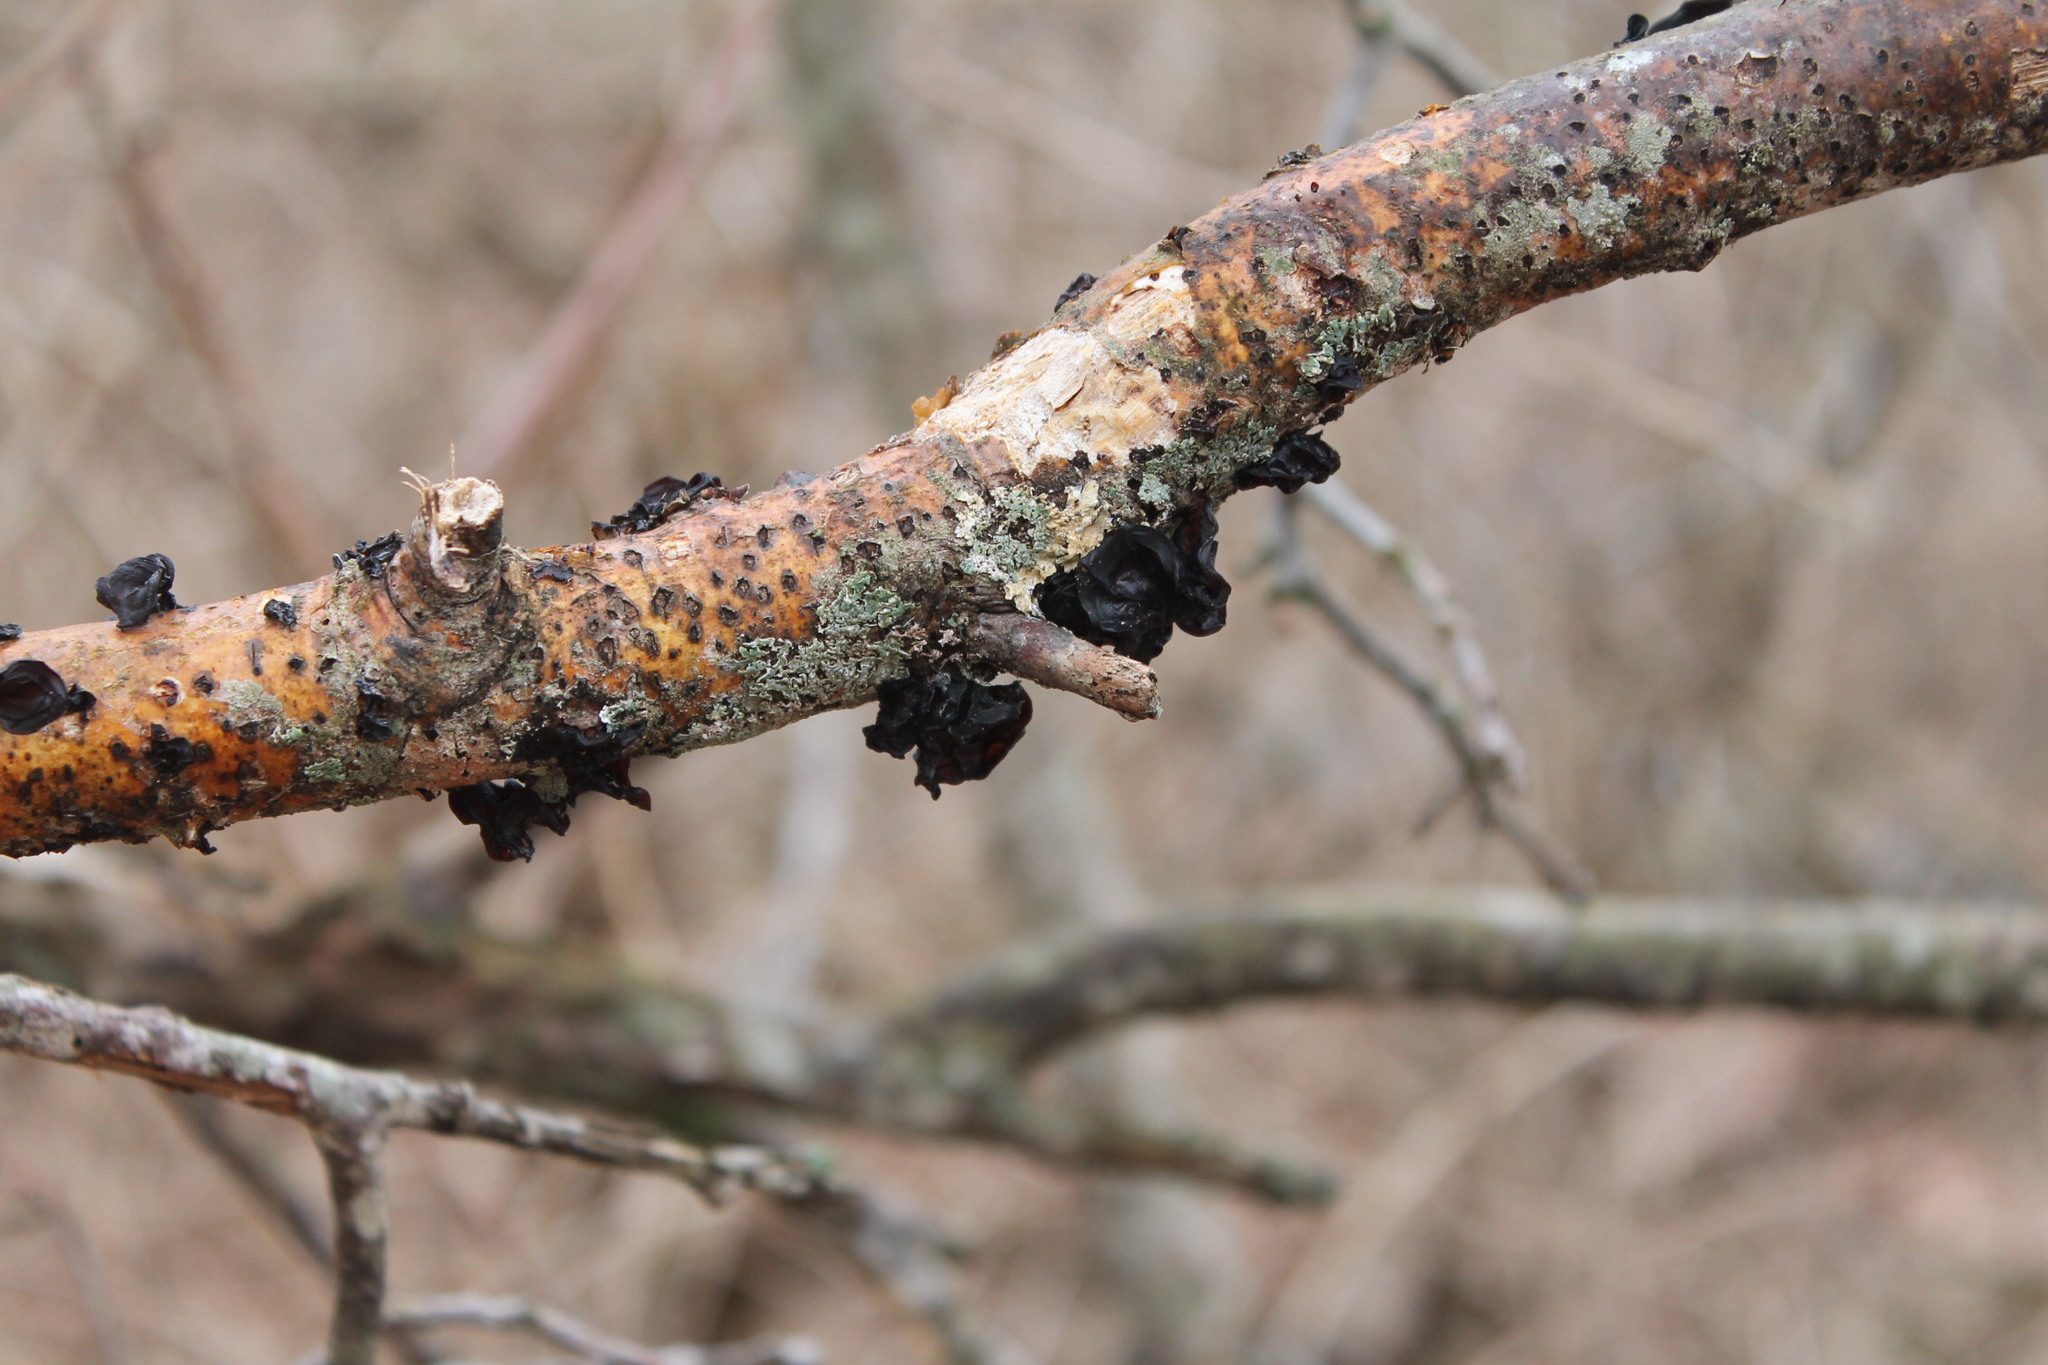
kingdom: Fungi
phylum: Basidiomycota
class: Agaricomycetes
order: Auriculariales
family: Auriculariaceae
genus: Exidia
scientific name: Exidia
